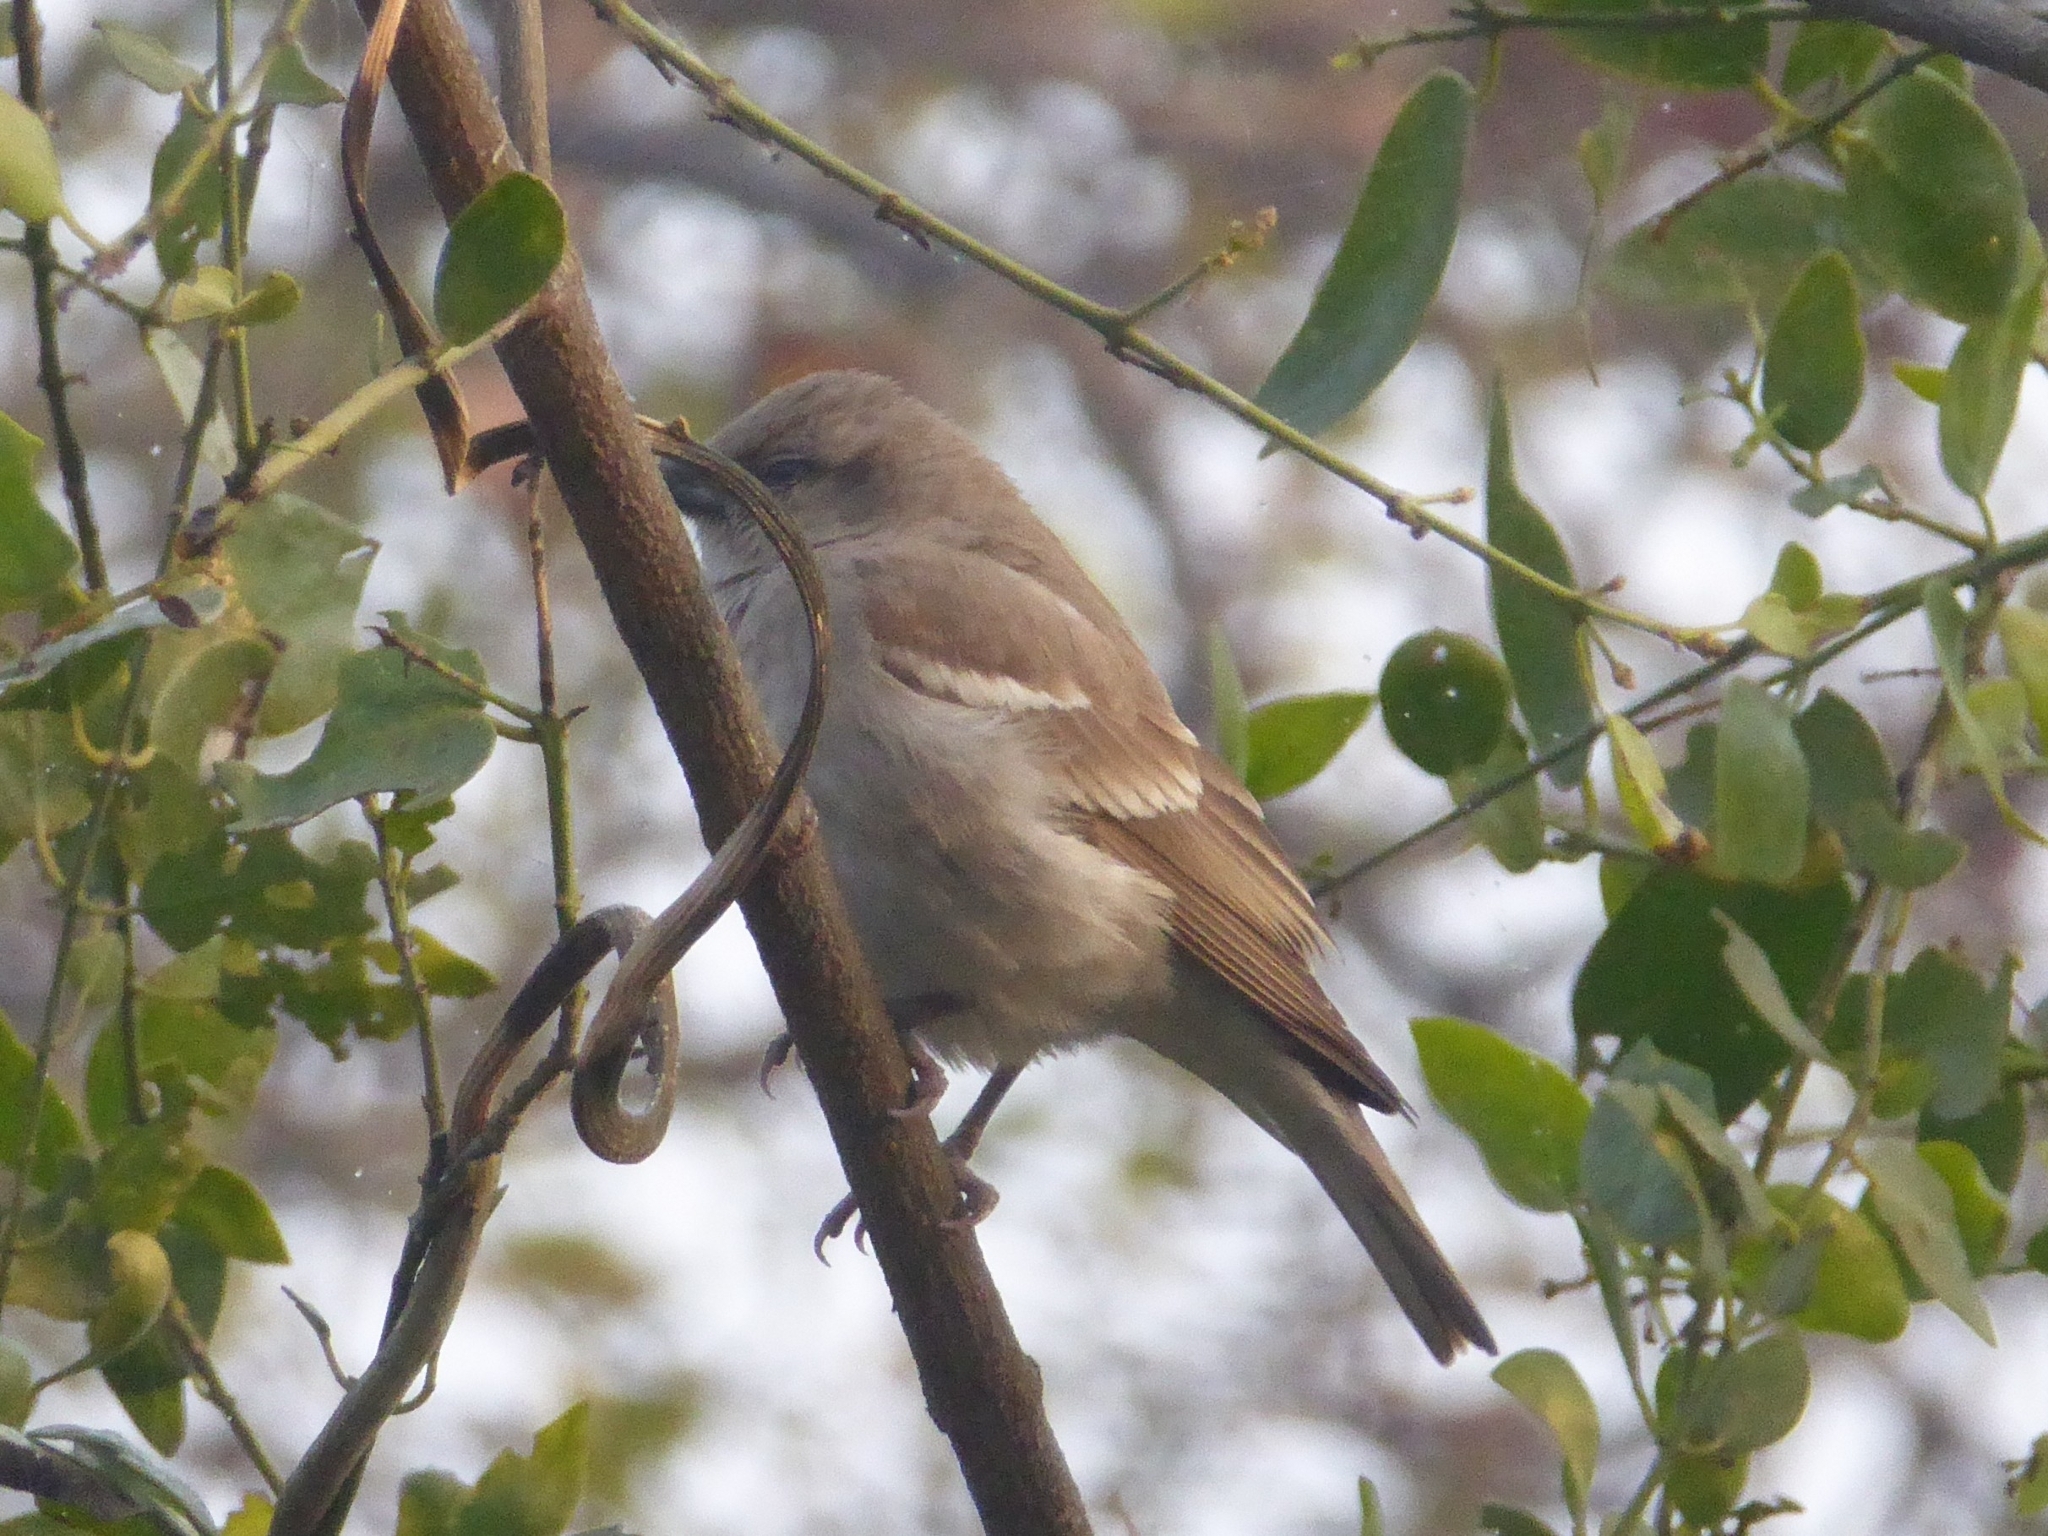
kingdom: Animalia
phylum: Chordata
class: Aves
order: Passeriformes
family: Passeridae
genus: Gymnoris
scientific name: Gymnoris xanthocollis
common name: Yellow-throated sparrow
